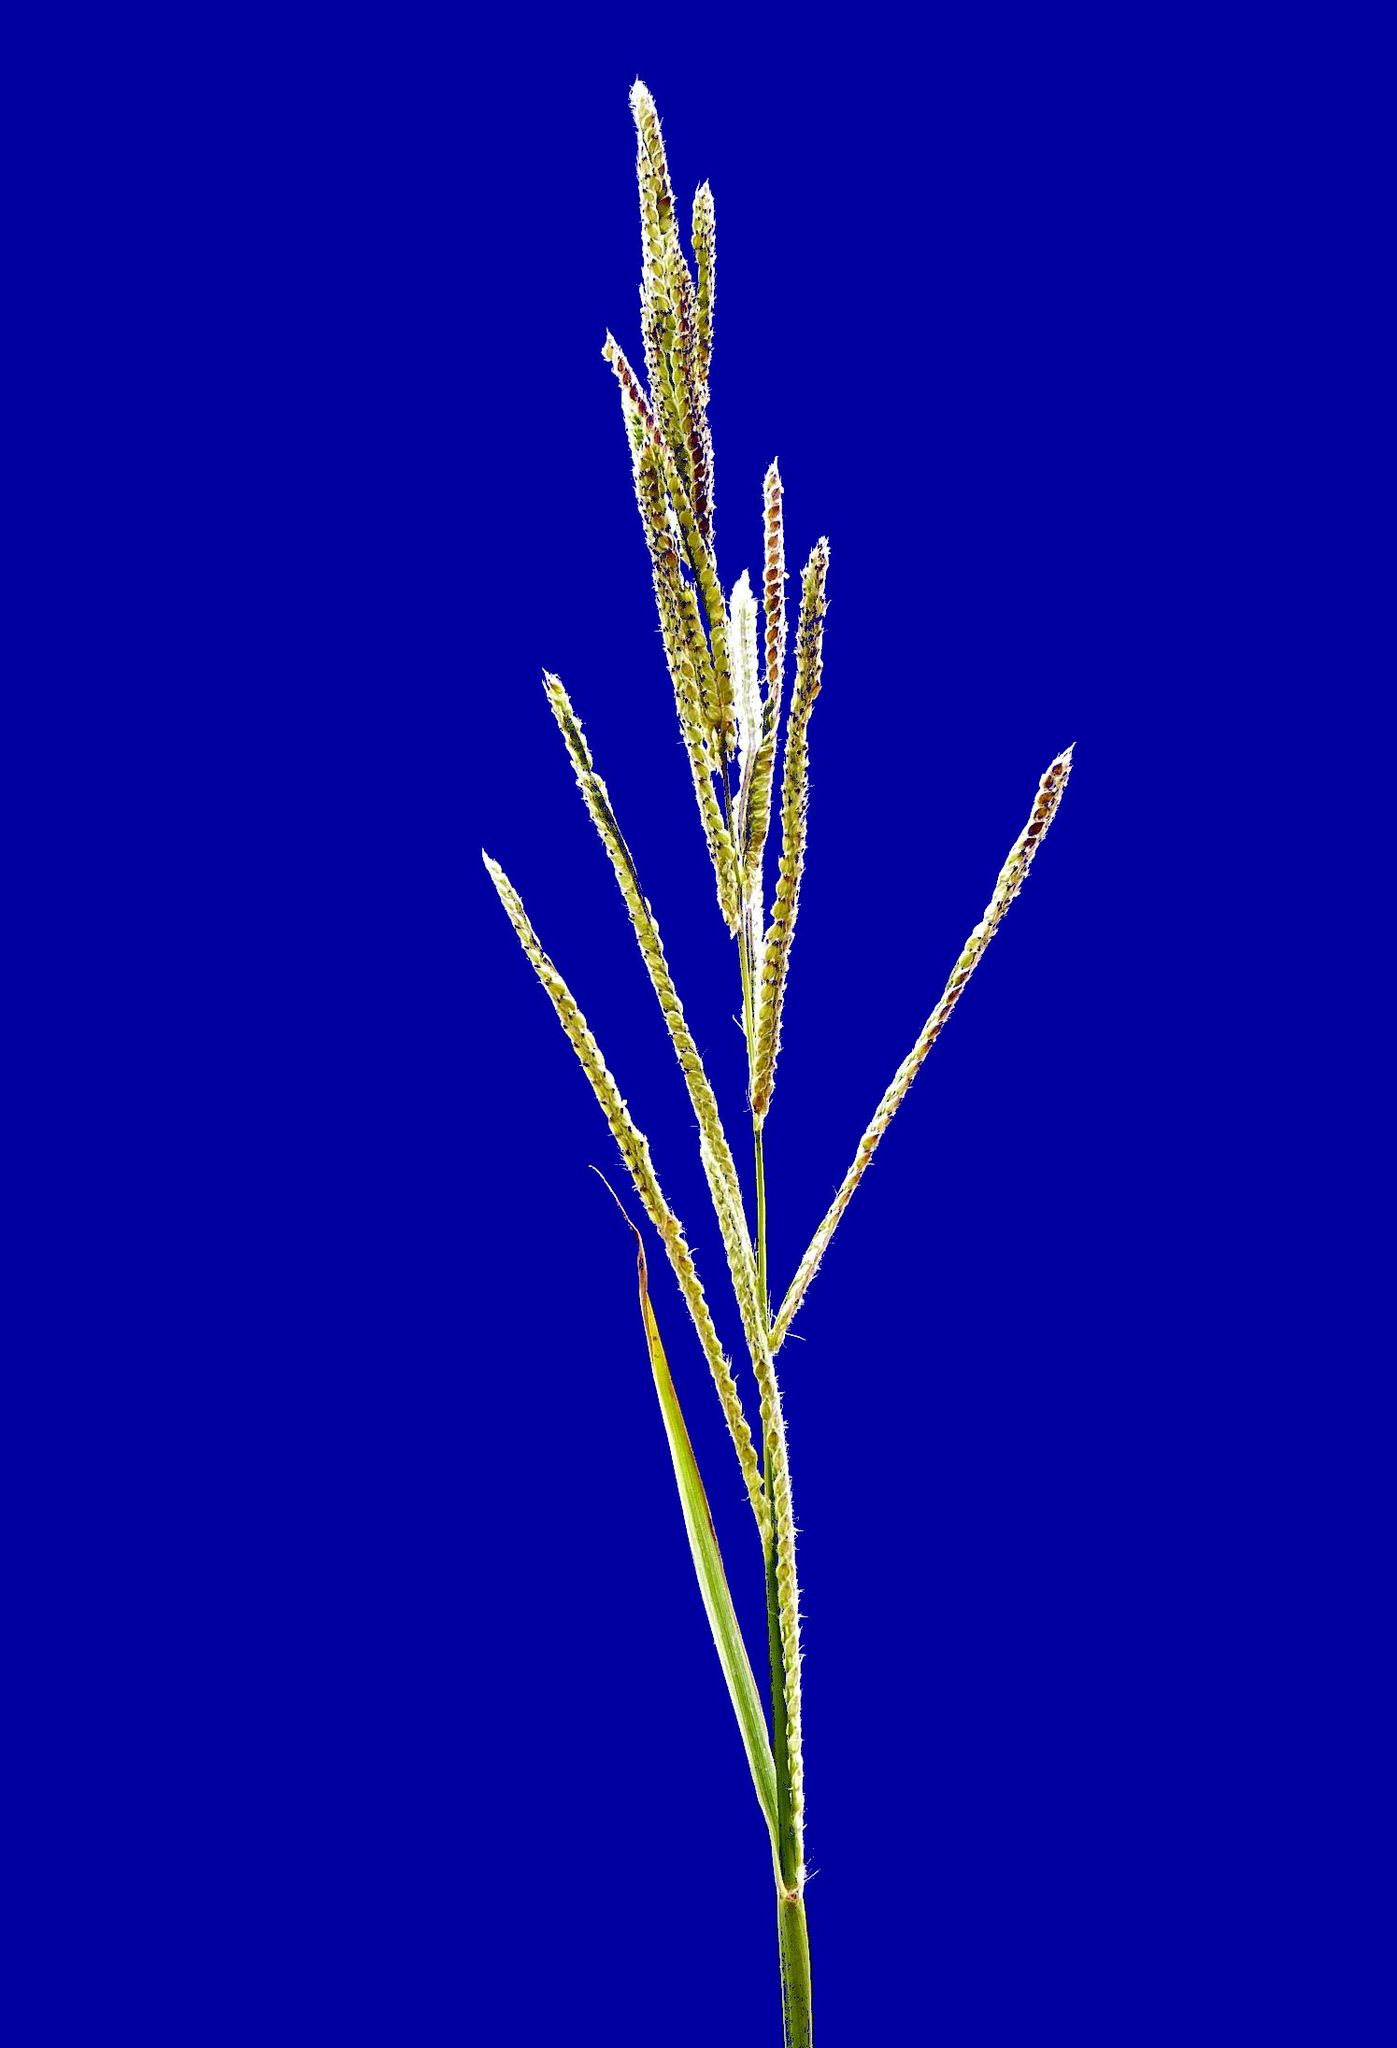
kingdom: Plantae
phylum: Tracheophyta
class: Liliopsida
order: Poales
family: Poaceae
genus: Paspalum
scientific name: Paspalum urvillei
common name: Vasey's grass
